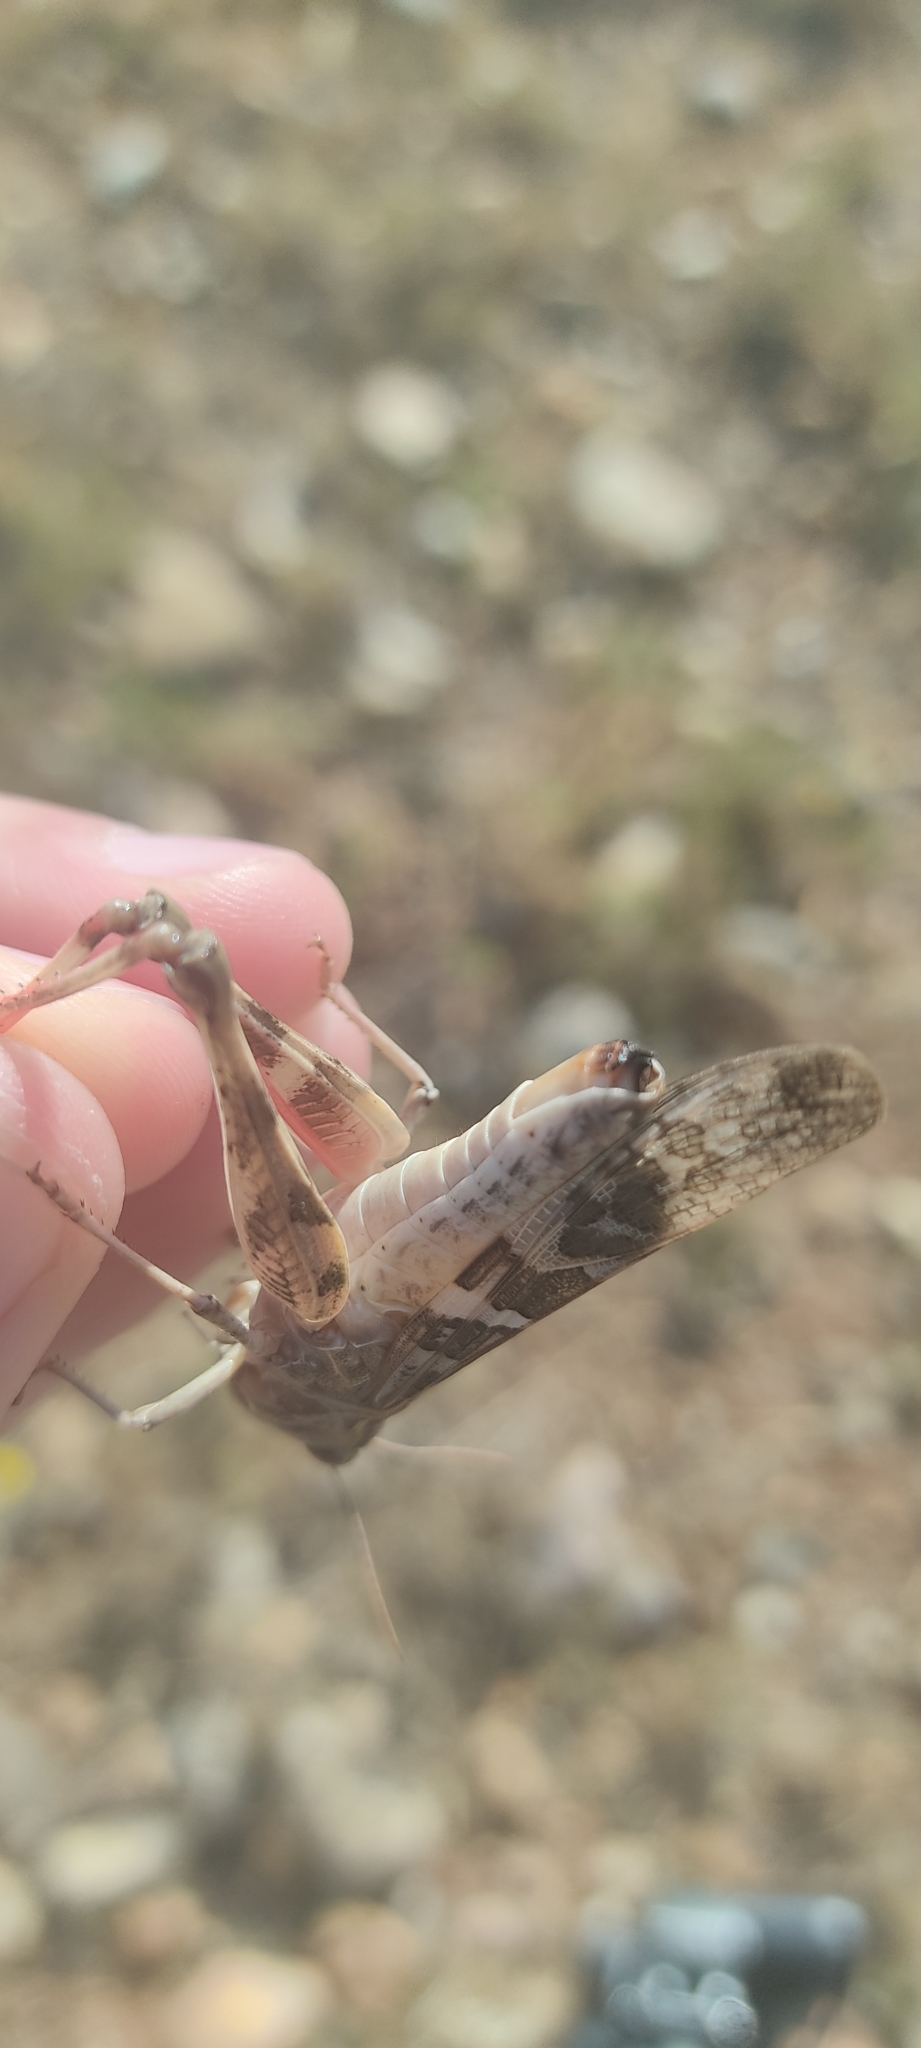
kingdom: Animalia
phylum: Arthropoda
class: Insecta
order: Orthoptera
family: Acrididae
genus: Oedaleus
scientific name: Oedaleus decorus
